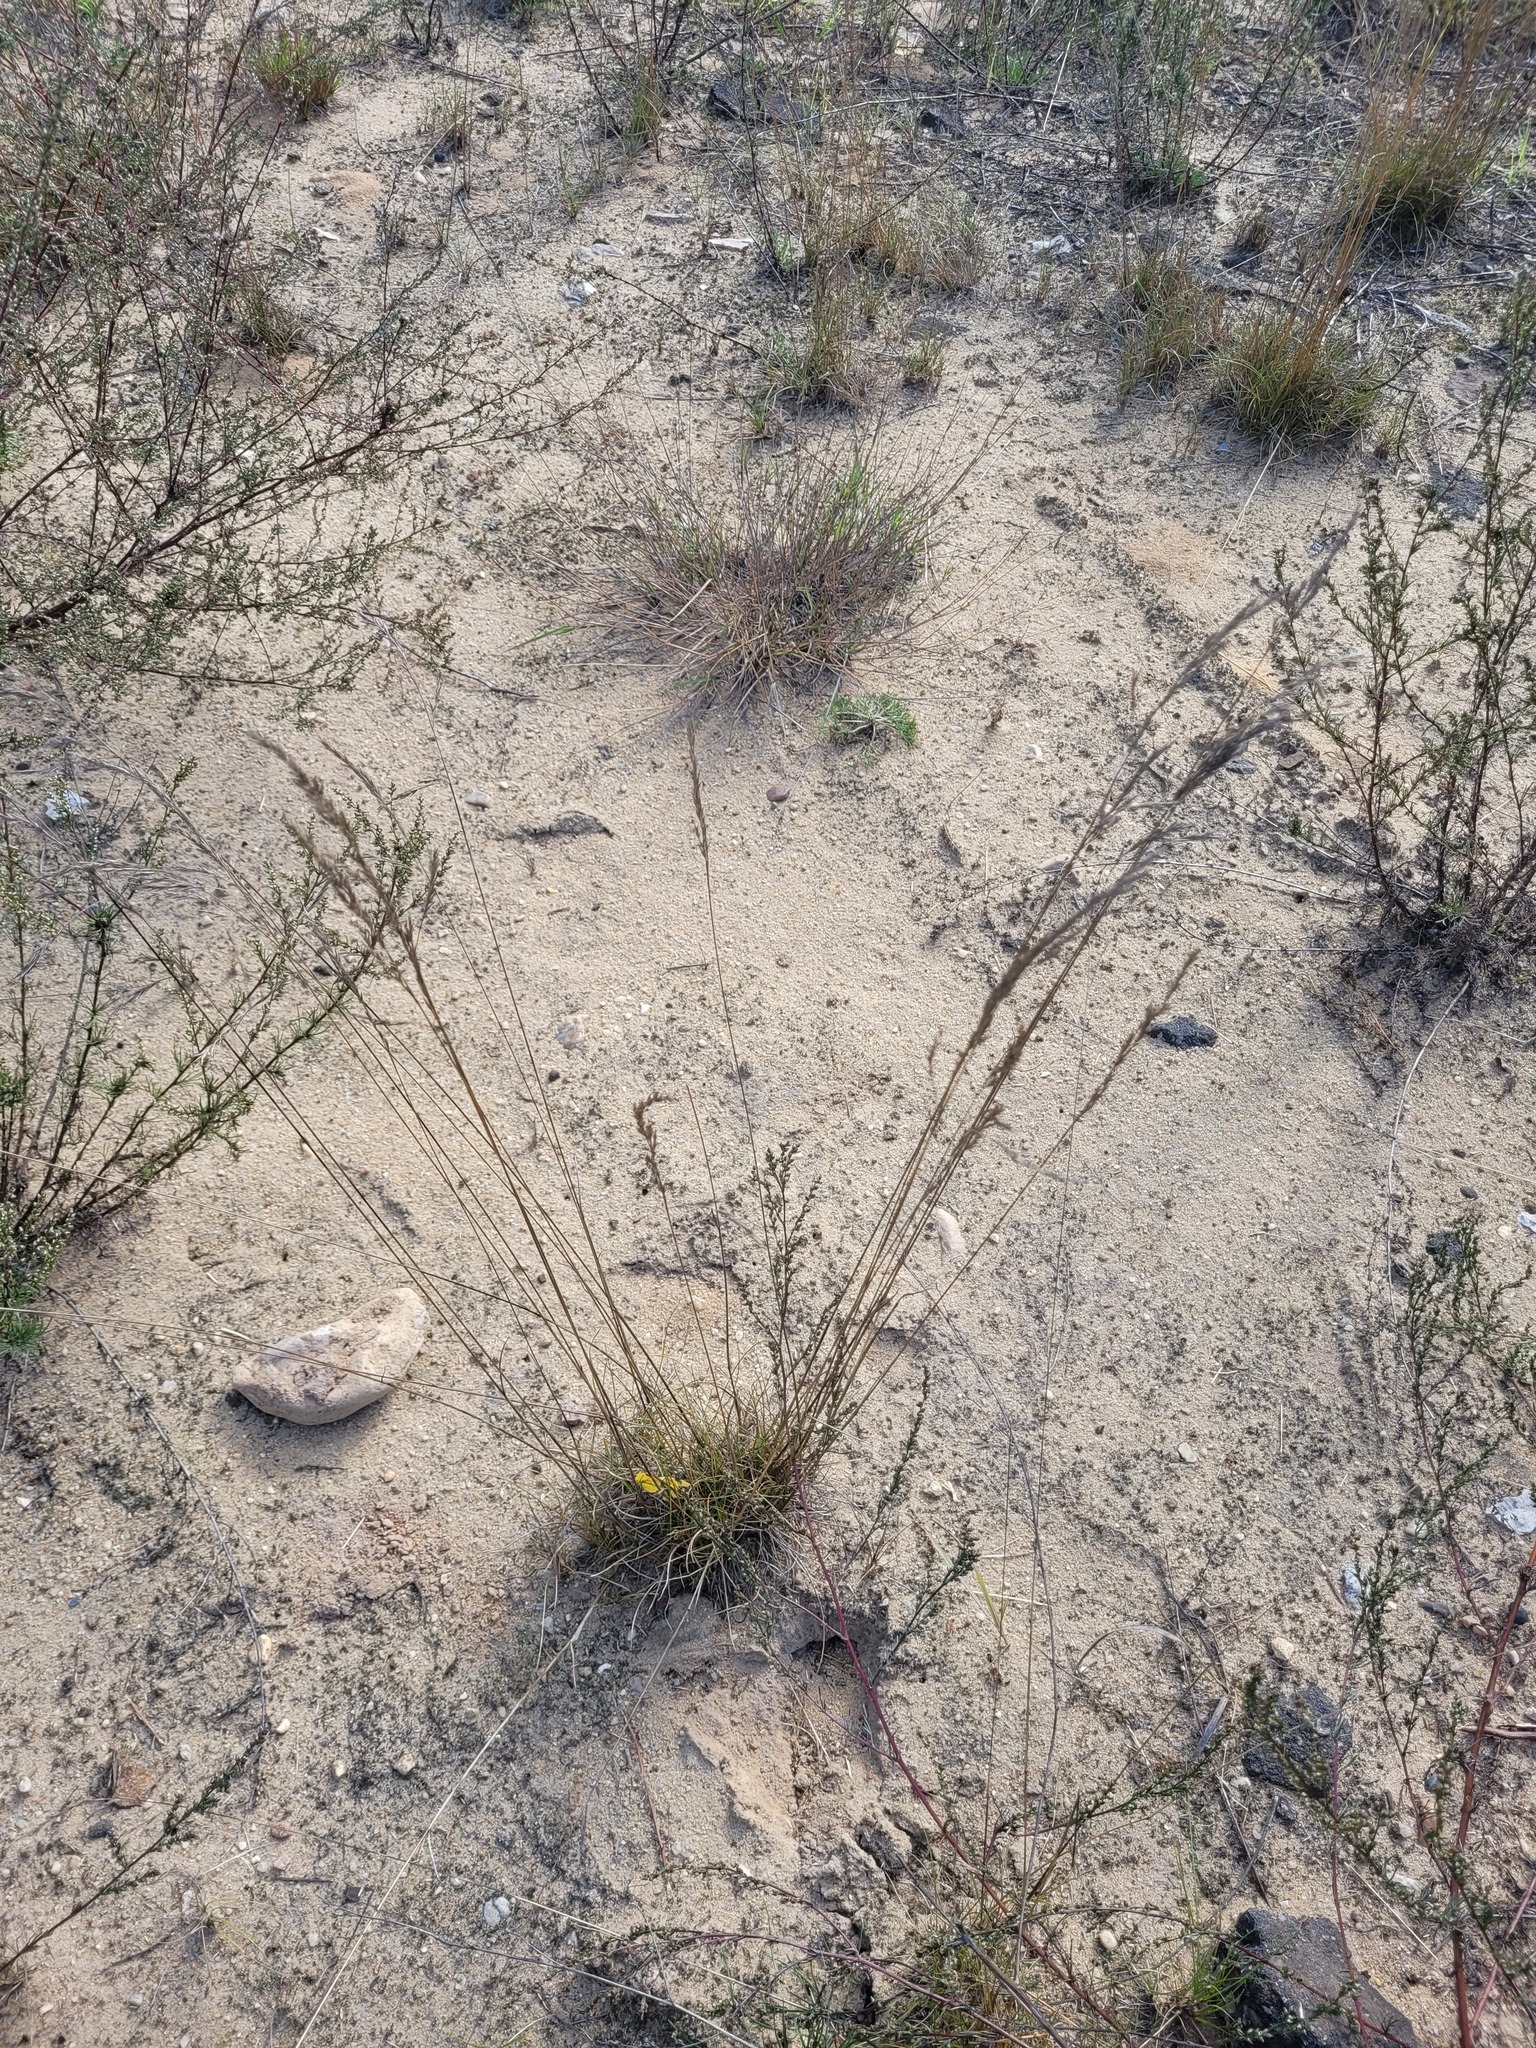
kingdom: Plantae
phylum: Tracheophyta
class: Liliopsida
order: Poales
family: Poaceae
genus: Festuca
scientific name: Festuca rubra
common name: Red fescue
